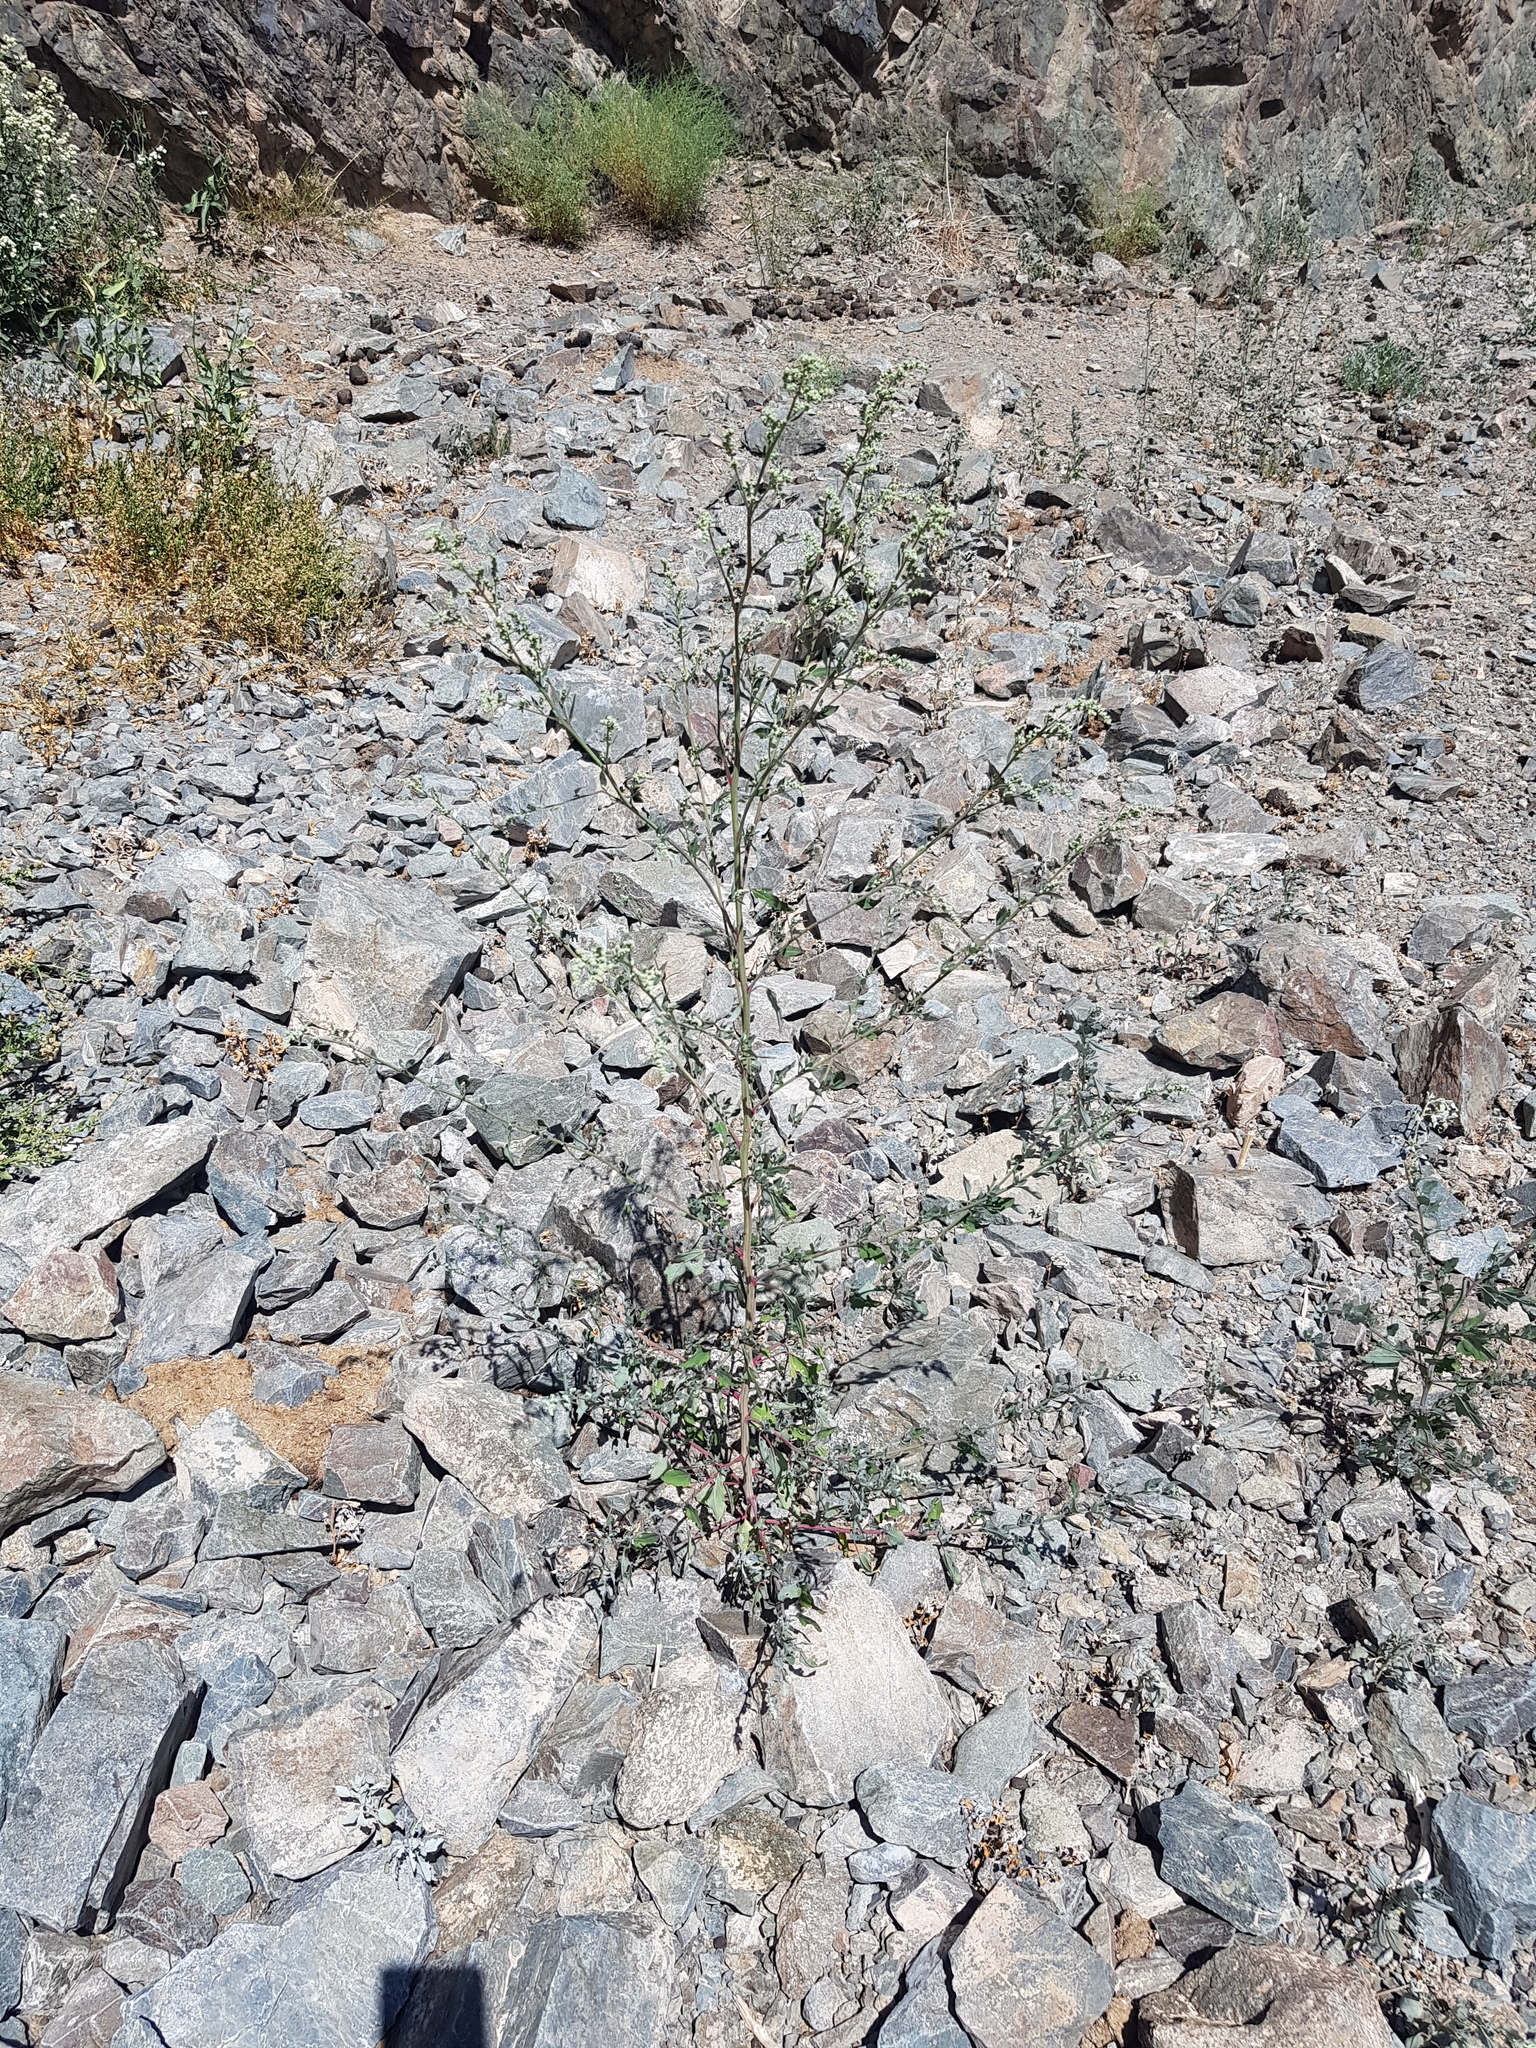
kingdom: Plantae
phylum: Tracheophyta
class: Magnoliopsida
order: Caryophyllales
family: Amaranthaceae
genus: Chenopodium
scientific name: Chenopodium album
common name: Fat-hen
